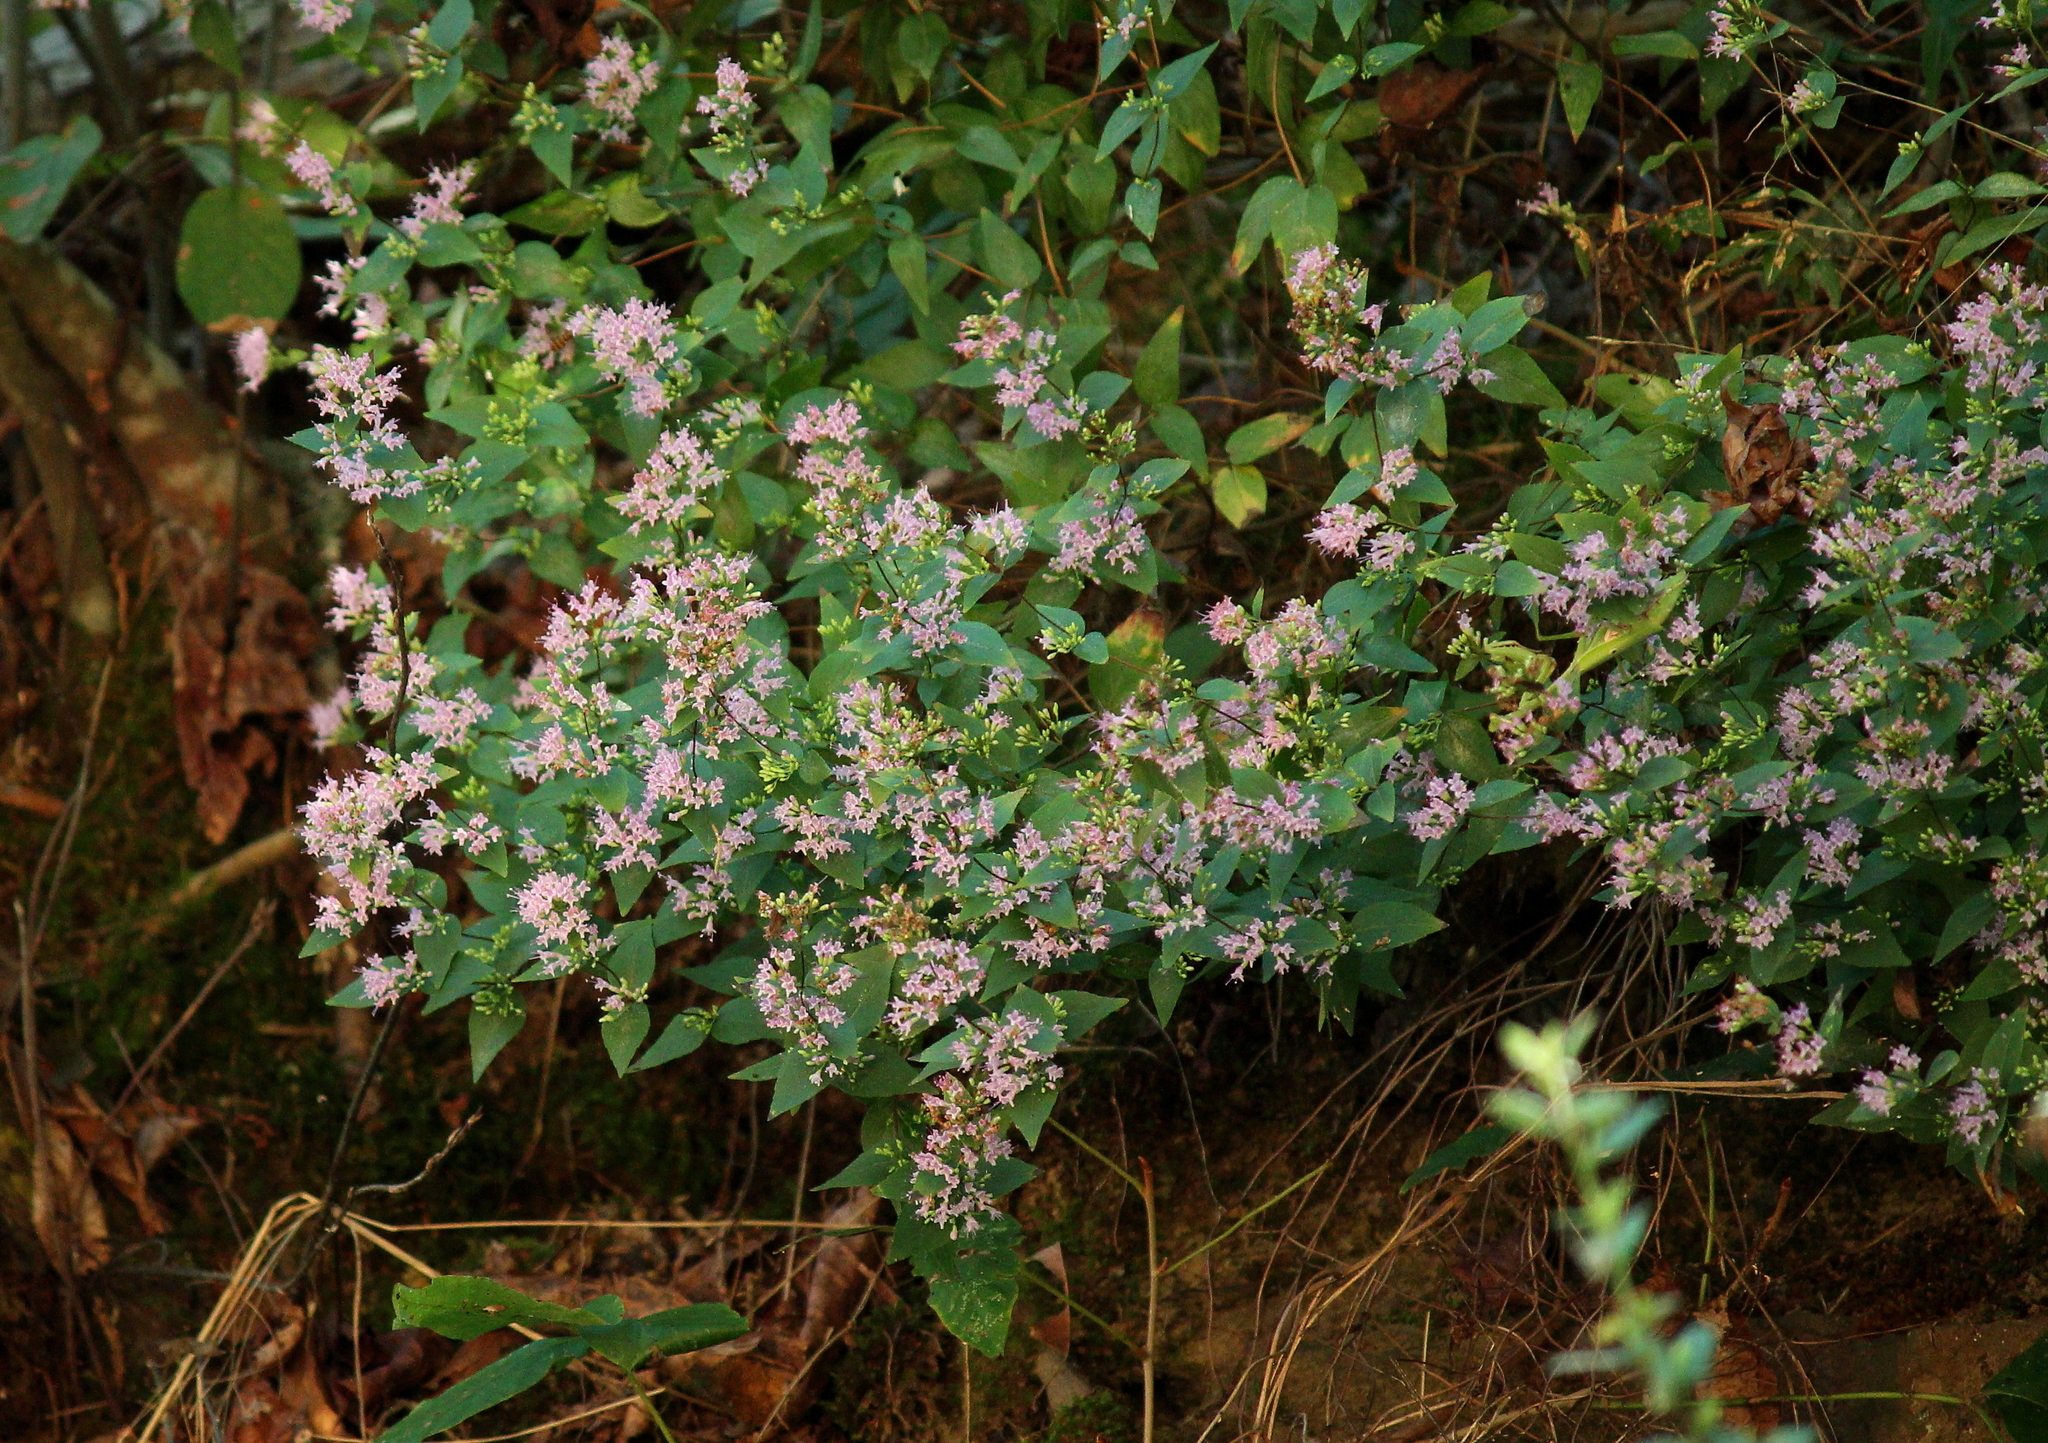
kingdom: Plantae
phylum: Tracheophyta
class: Magnoliopsida
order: Lamiales
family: Lamiaceae
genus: Cunila
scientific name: Cunila origanoides
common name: American dittany
